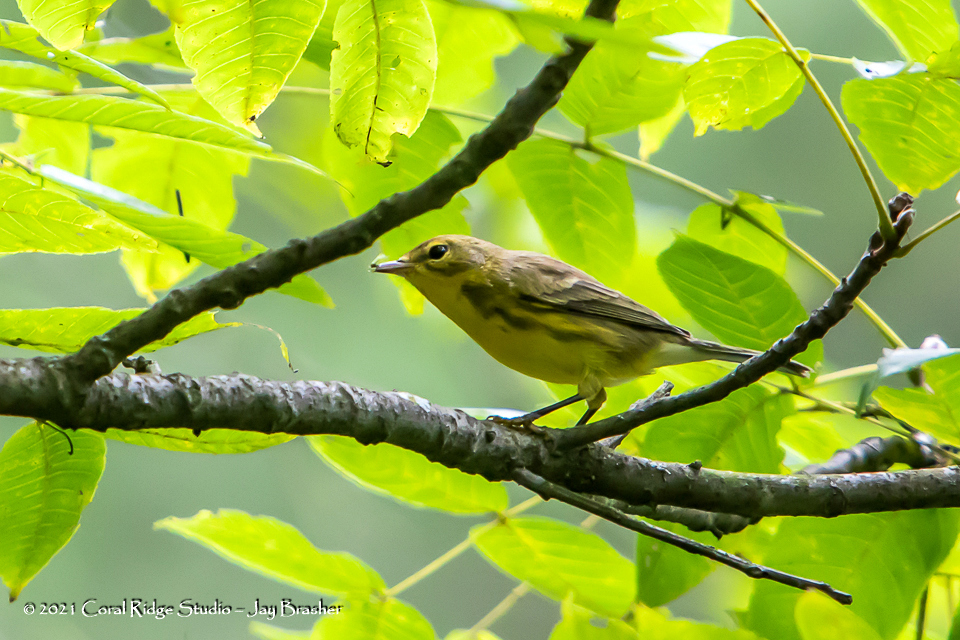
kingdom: Animalia
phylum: Chordata
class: Aves
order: Passeriformes
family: Parulidae
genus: Setophaga
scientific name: Setophaga discolor
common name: Prairie warbler
